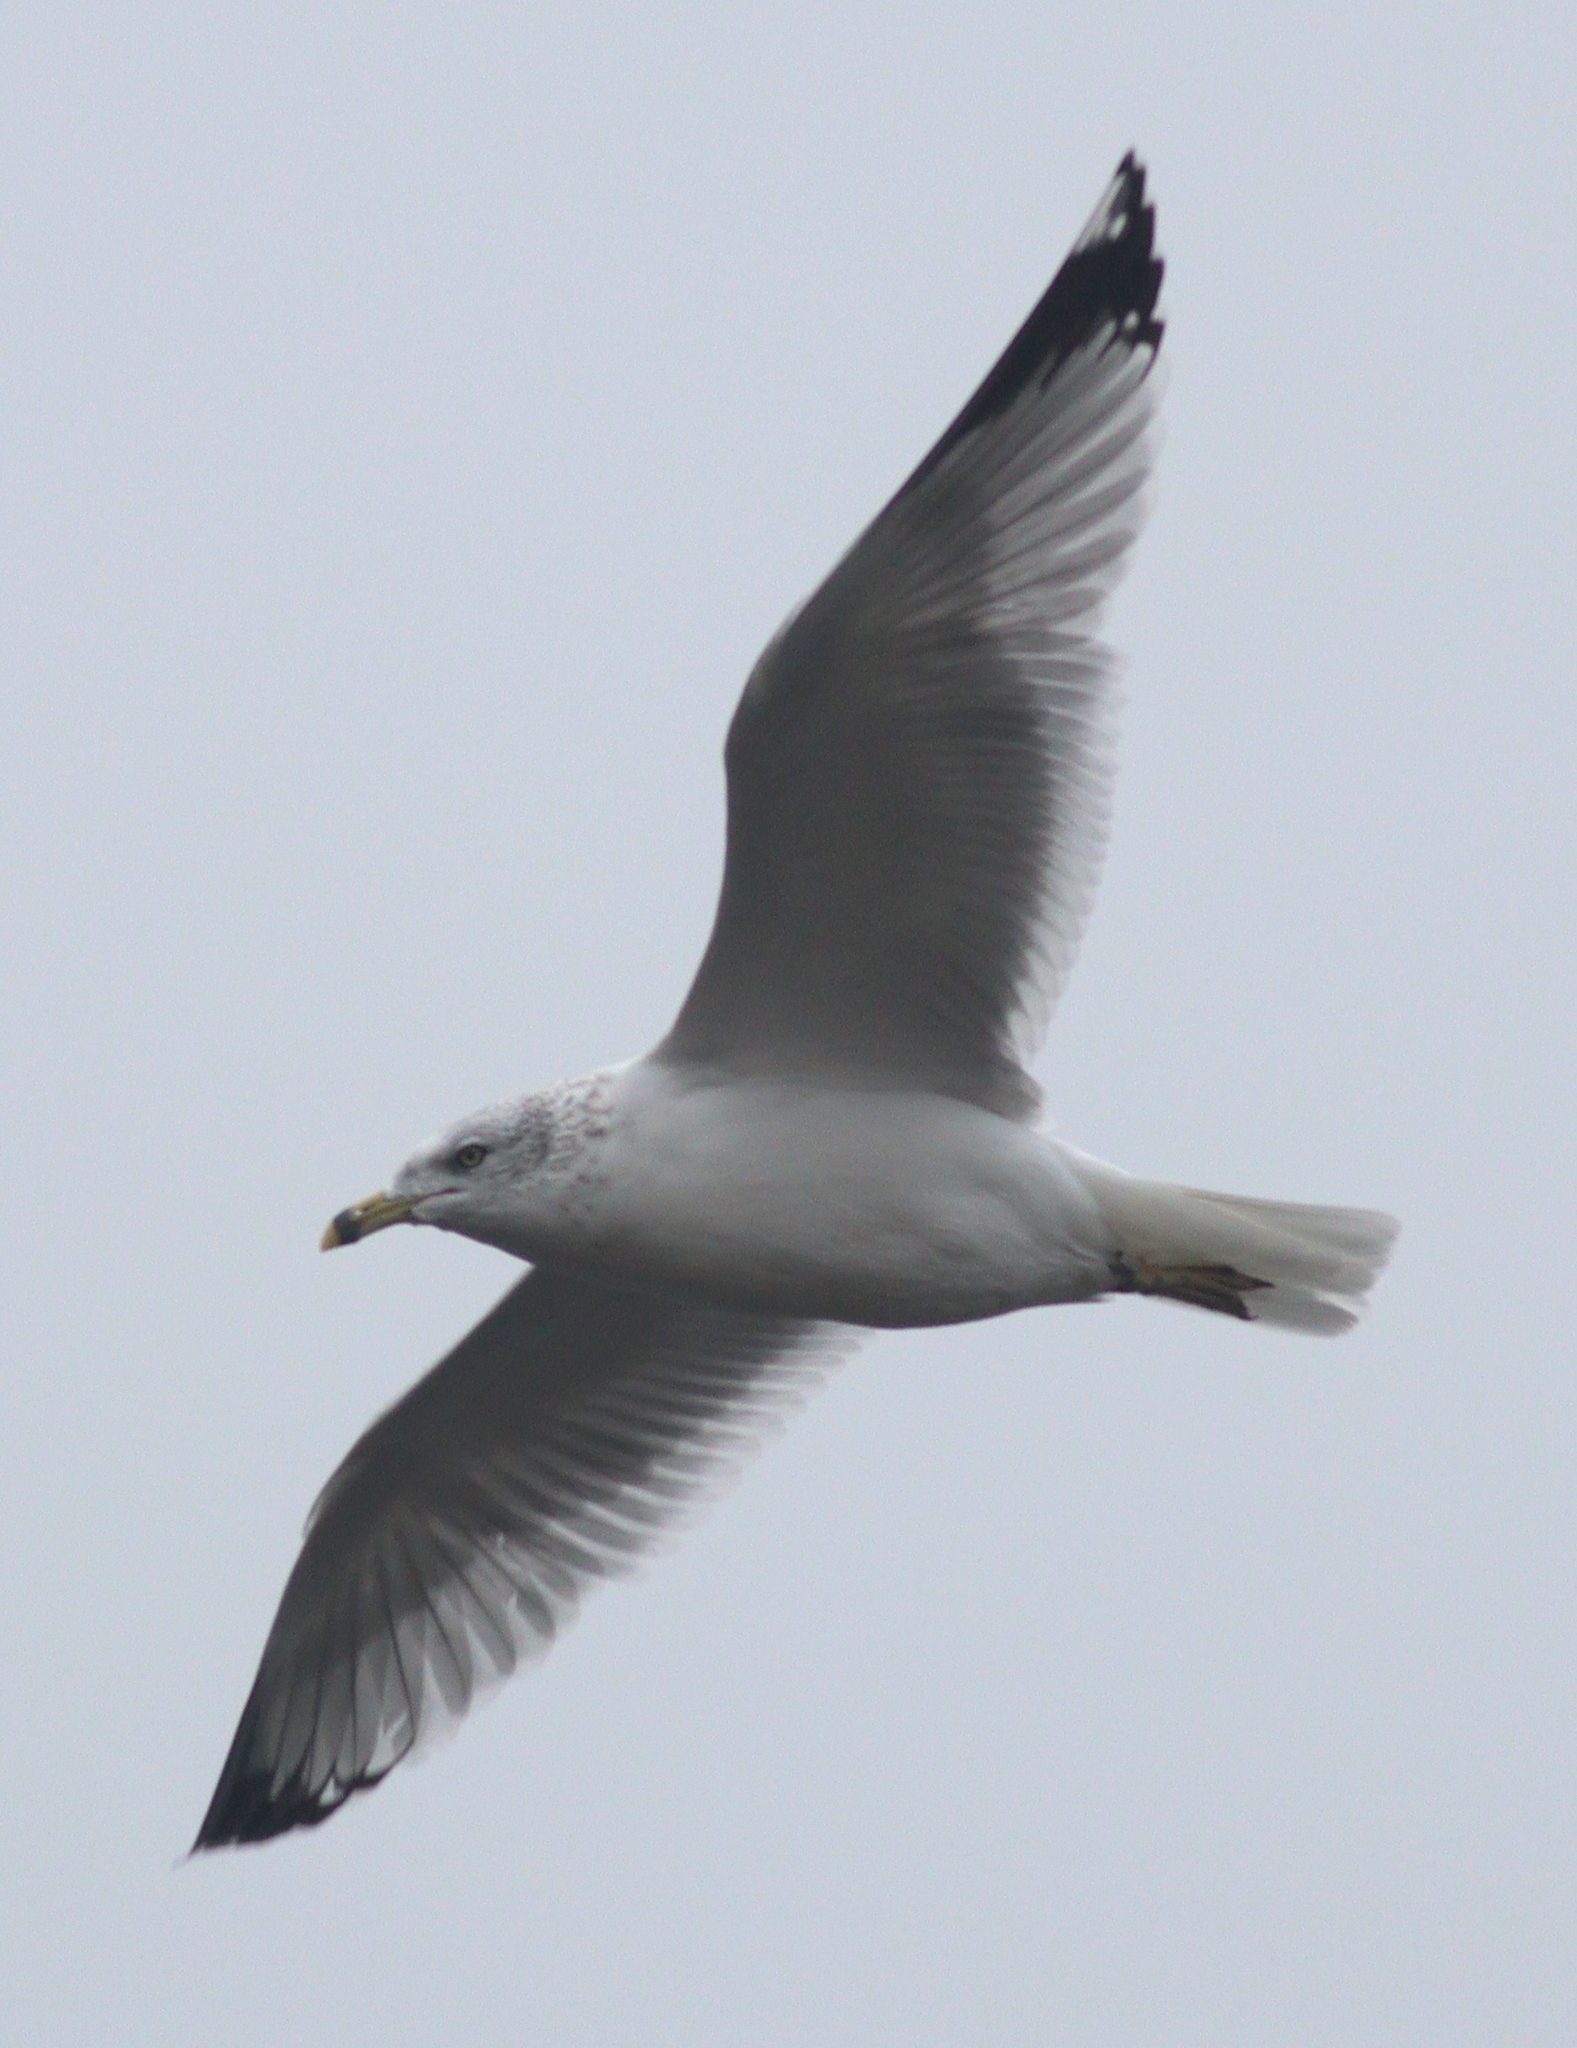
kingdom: Animalia
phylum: Chordata
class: Aves
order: Charadriiformes
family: Laridae
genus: Larus
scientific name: Larus delawarensis
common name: Ring-billed gull
